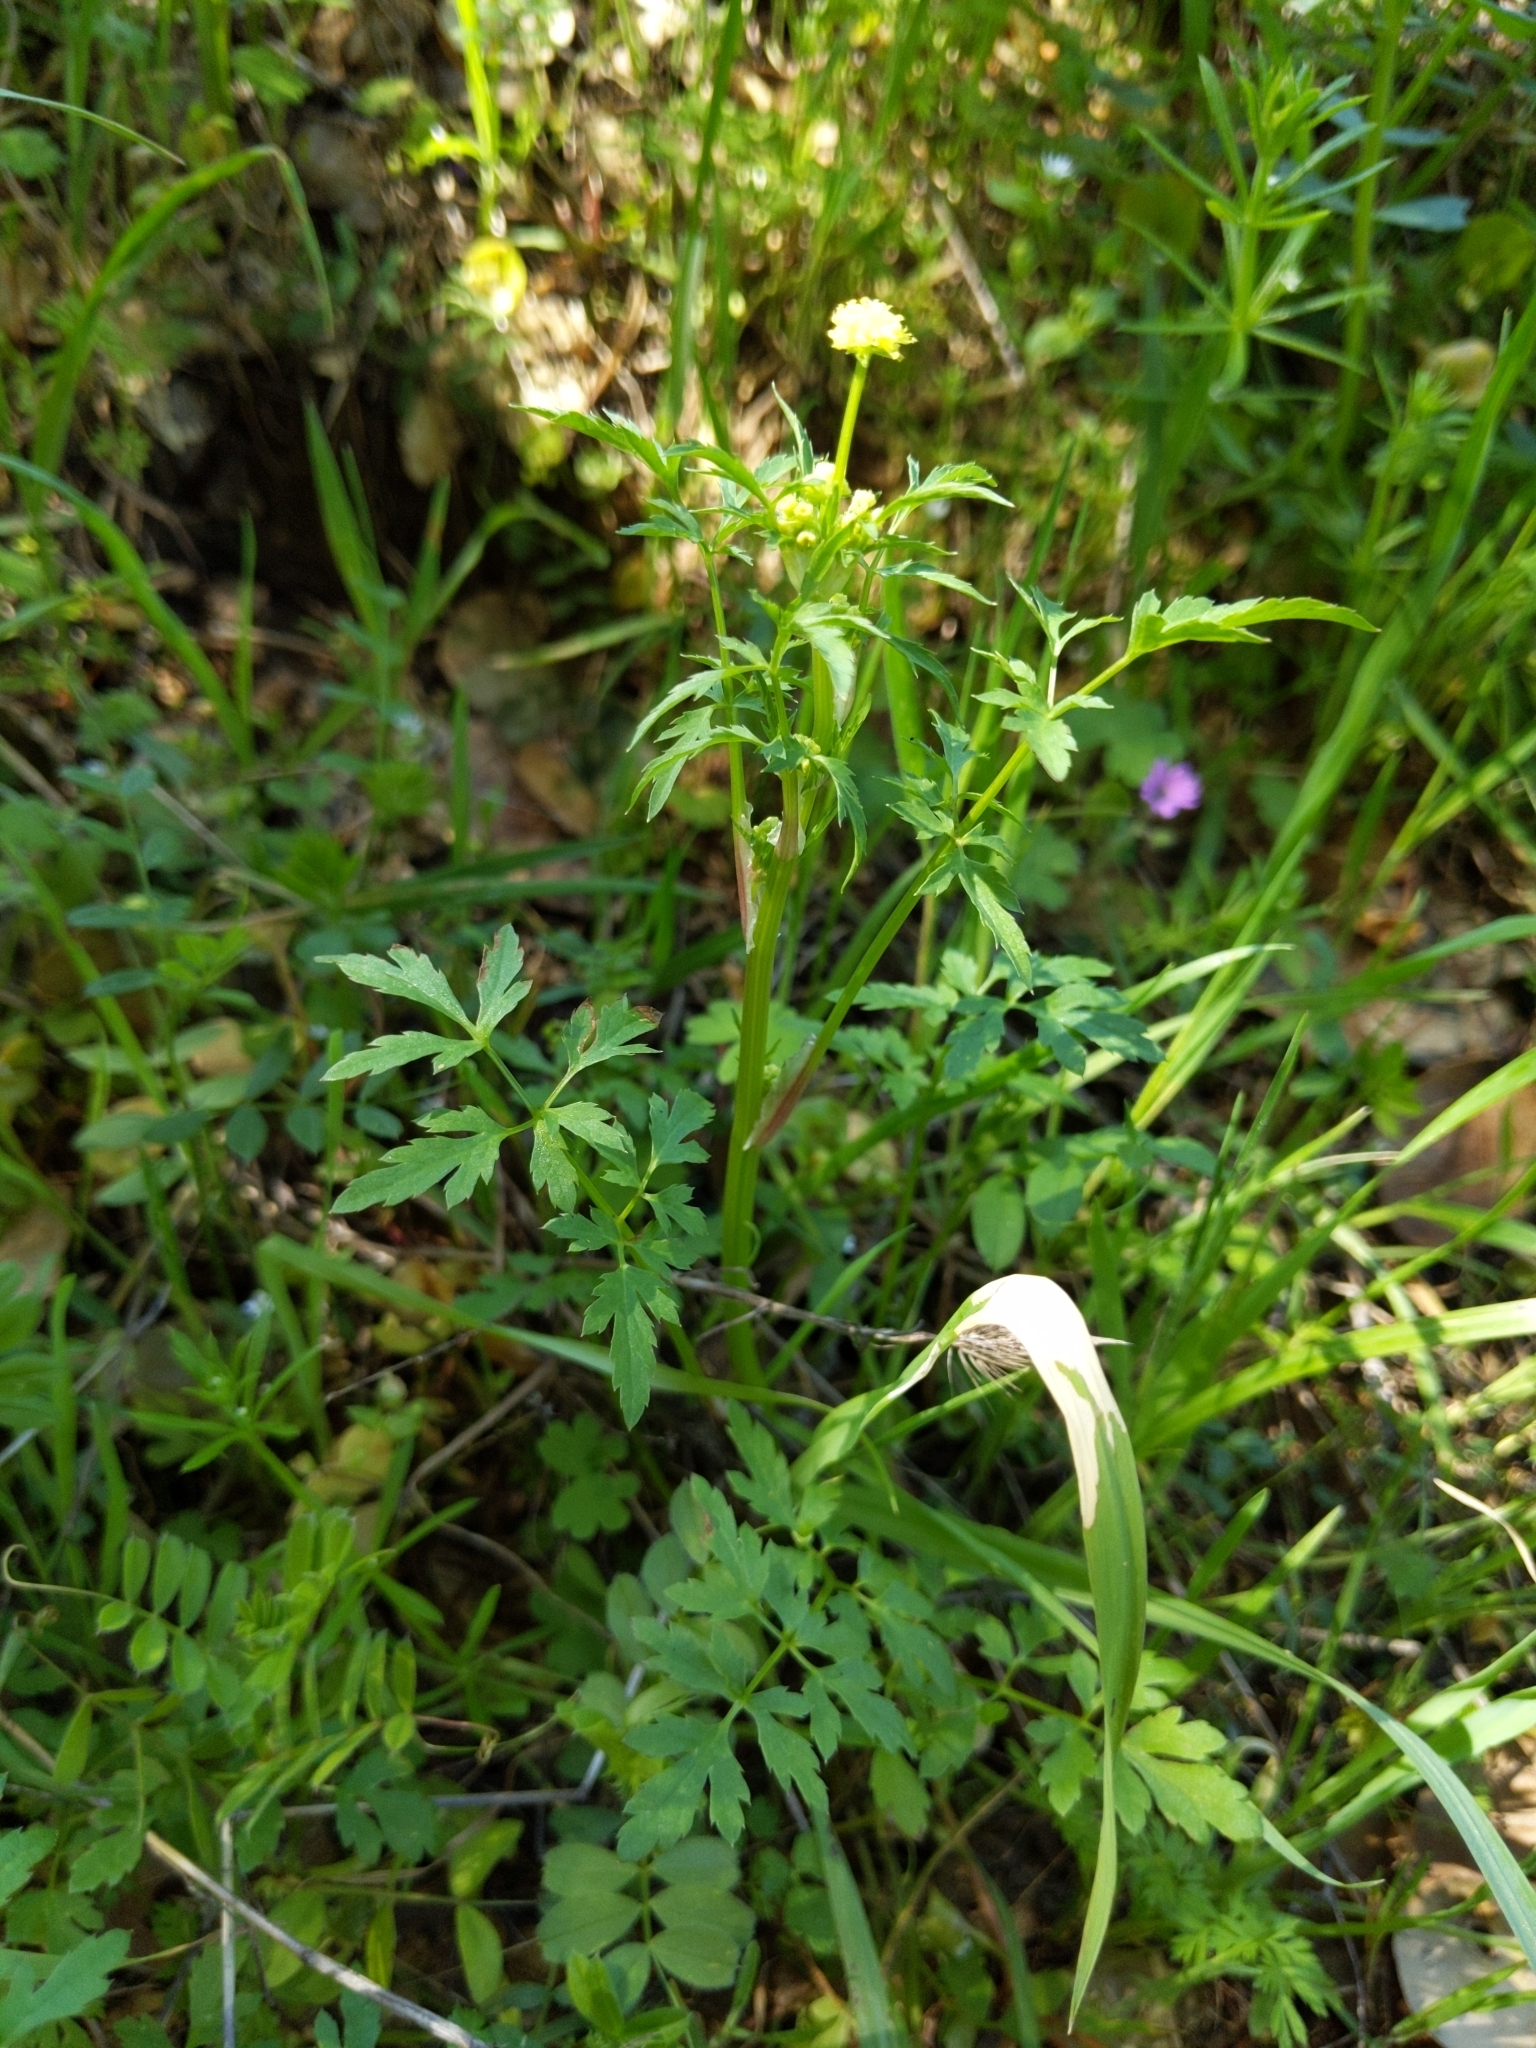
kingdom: Plantae
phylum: Tracheophyta
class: Magnoliopsida
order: Apiales
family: Apiaceae
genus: Sanicula
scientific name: Sanicula bipinnata
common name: Poison sanicle
